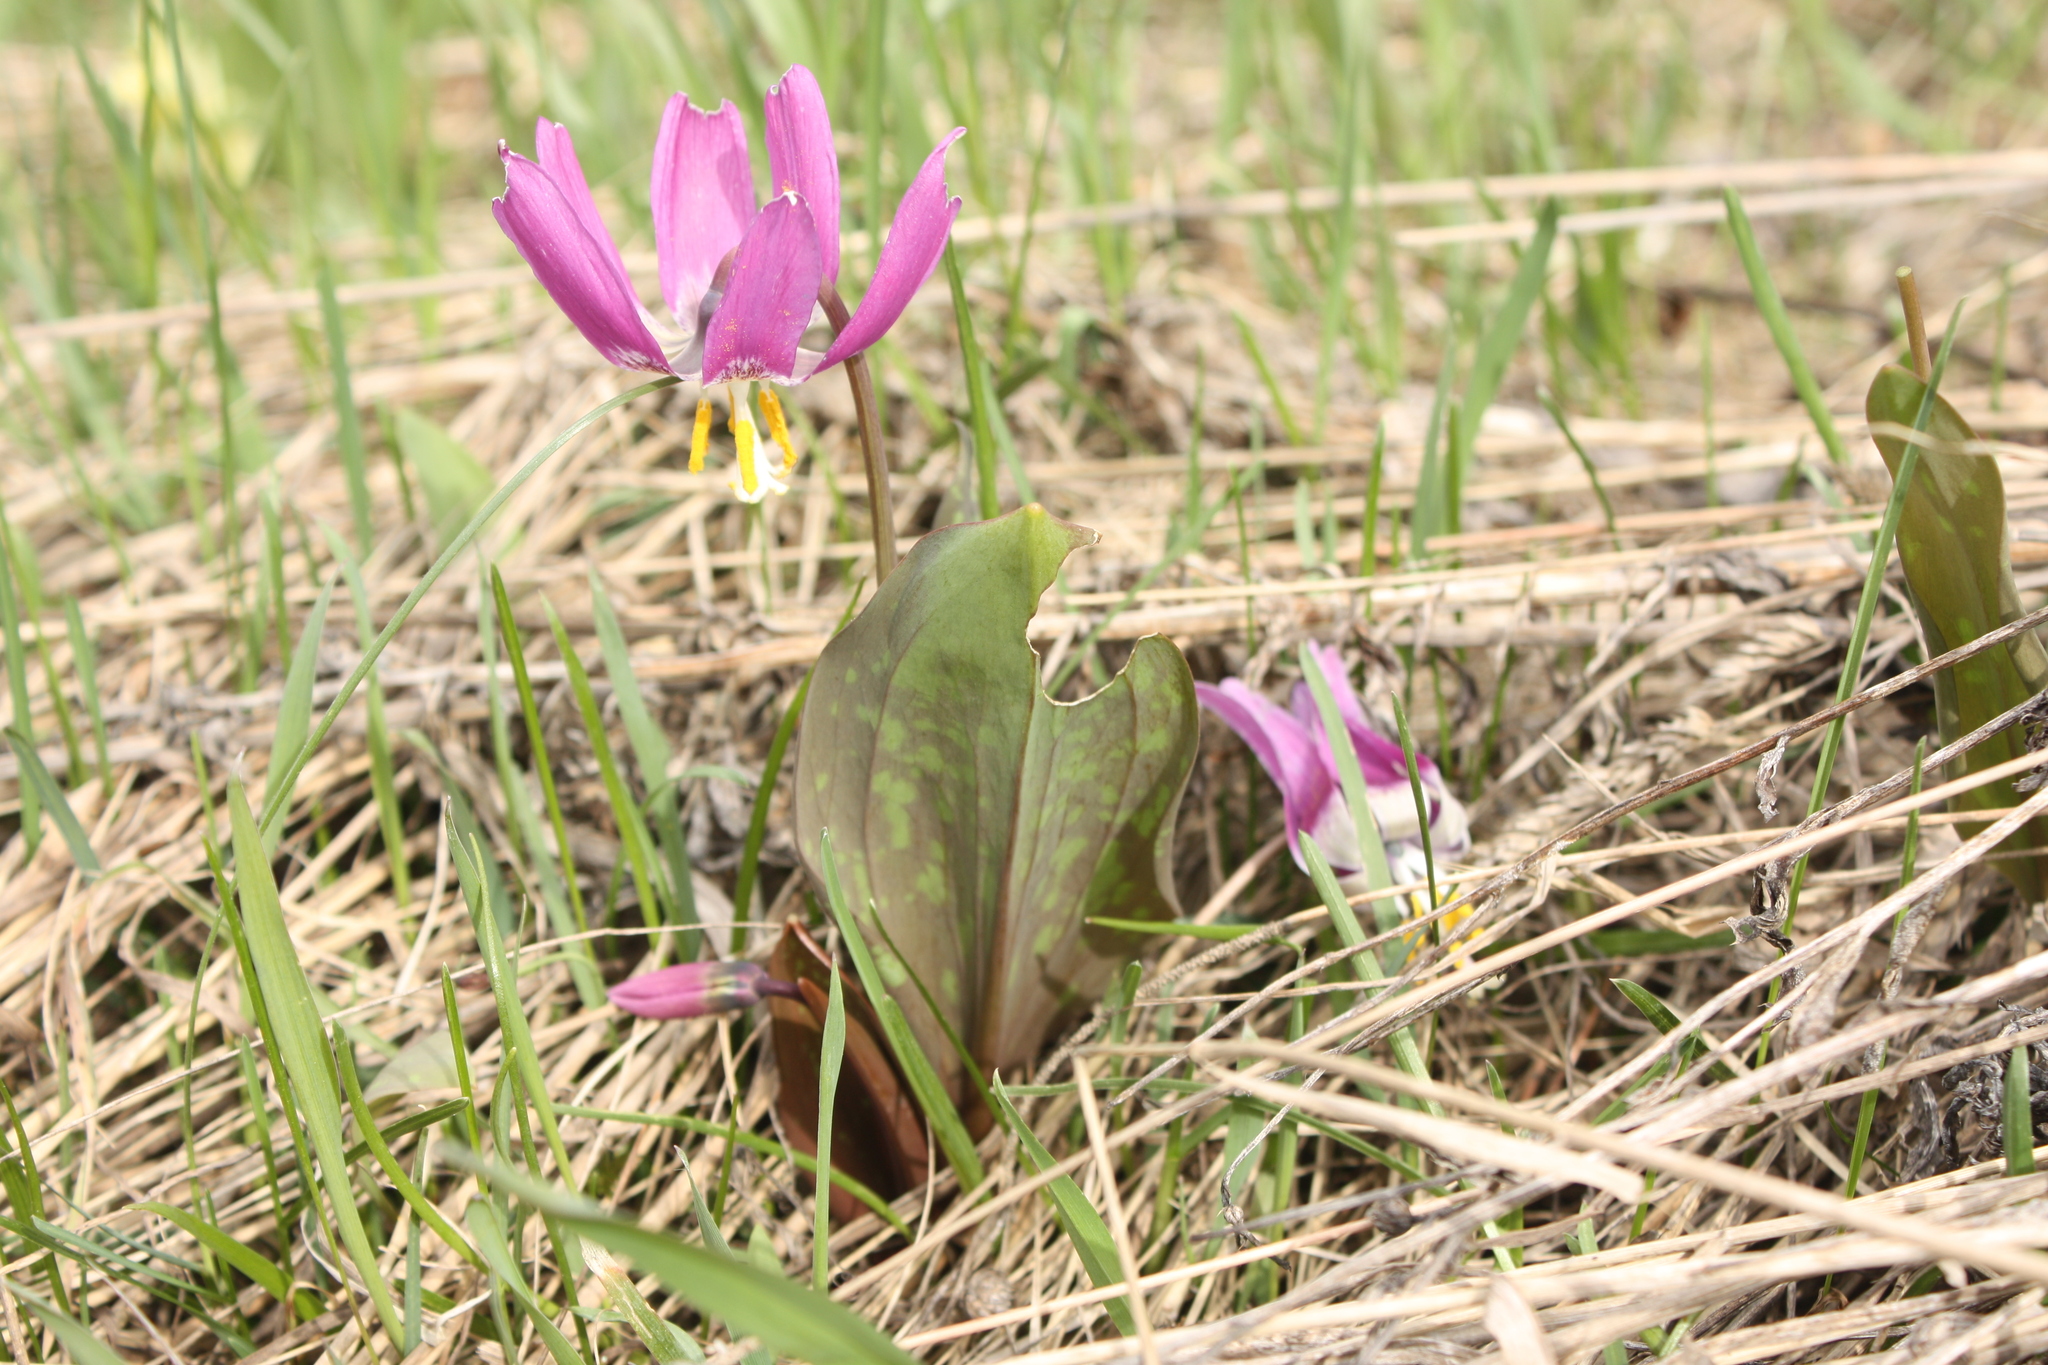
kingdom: Plantae
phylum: Tracheophyta
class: Liliopsida
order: Liliales
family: Liliaceae
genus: Erythronium
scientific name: Erythronium sibiricum
